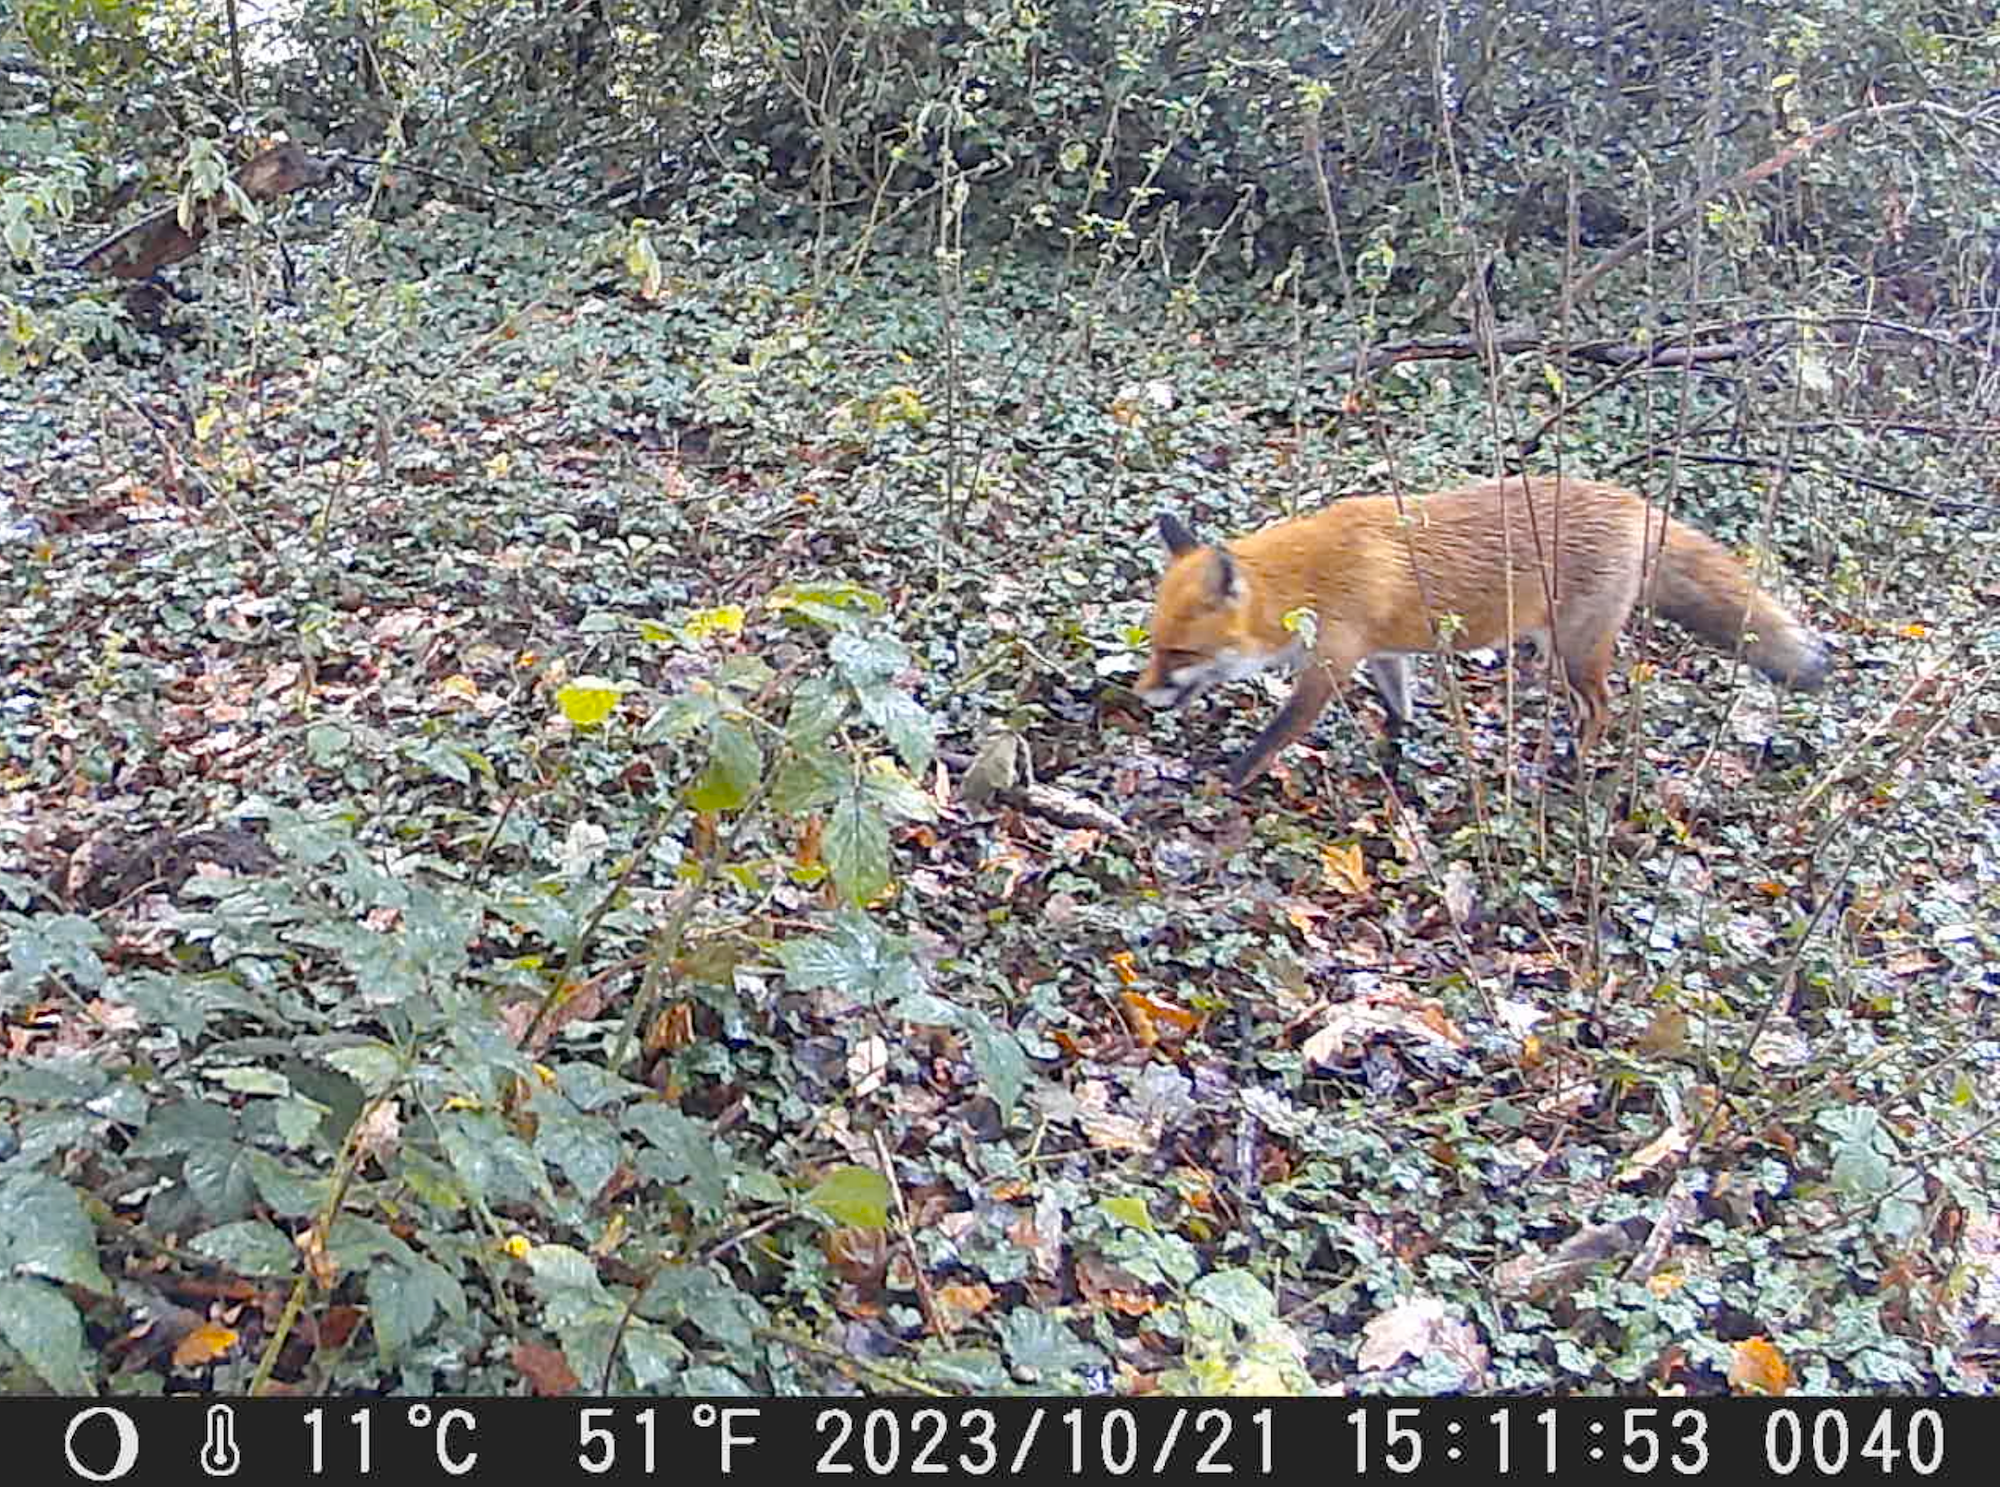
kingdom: Animalia
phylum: Chordata
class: Mammalia
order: Carnivora
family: Canidae
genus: Vulpes
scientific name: Vulpes vulpes
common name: Red fox
